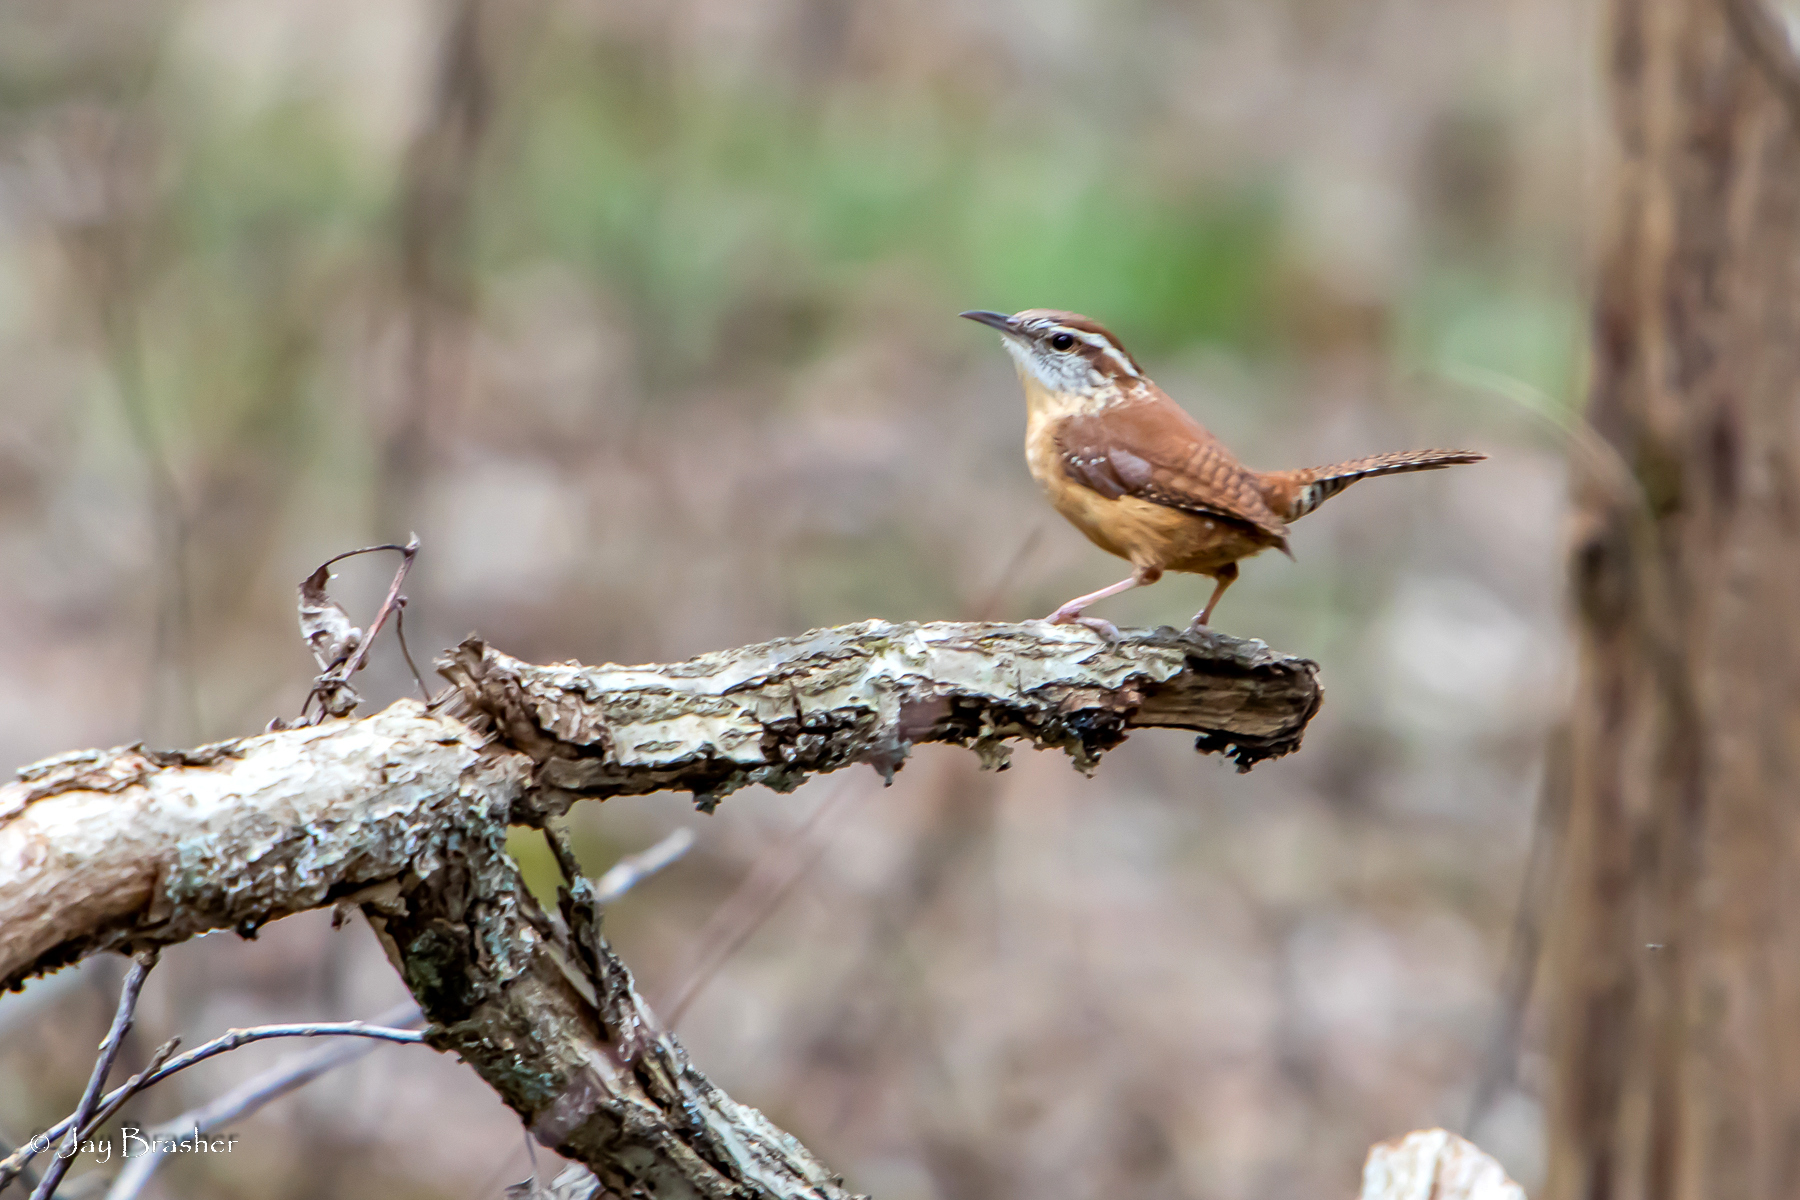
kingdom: Animalia
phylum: Chordata
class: Aves
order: Passeriformes
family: Troglodytidae
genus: Thryothorus
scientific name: Thryothorus ludovicianus
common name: Carolina wren
